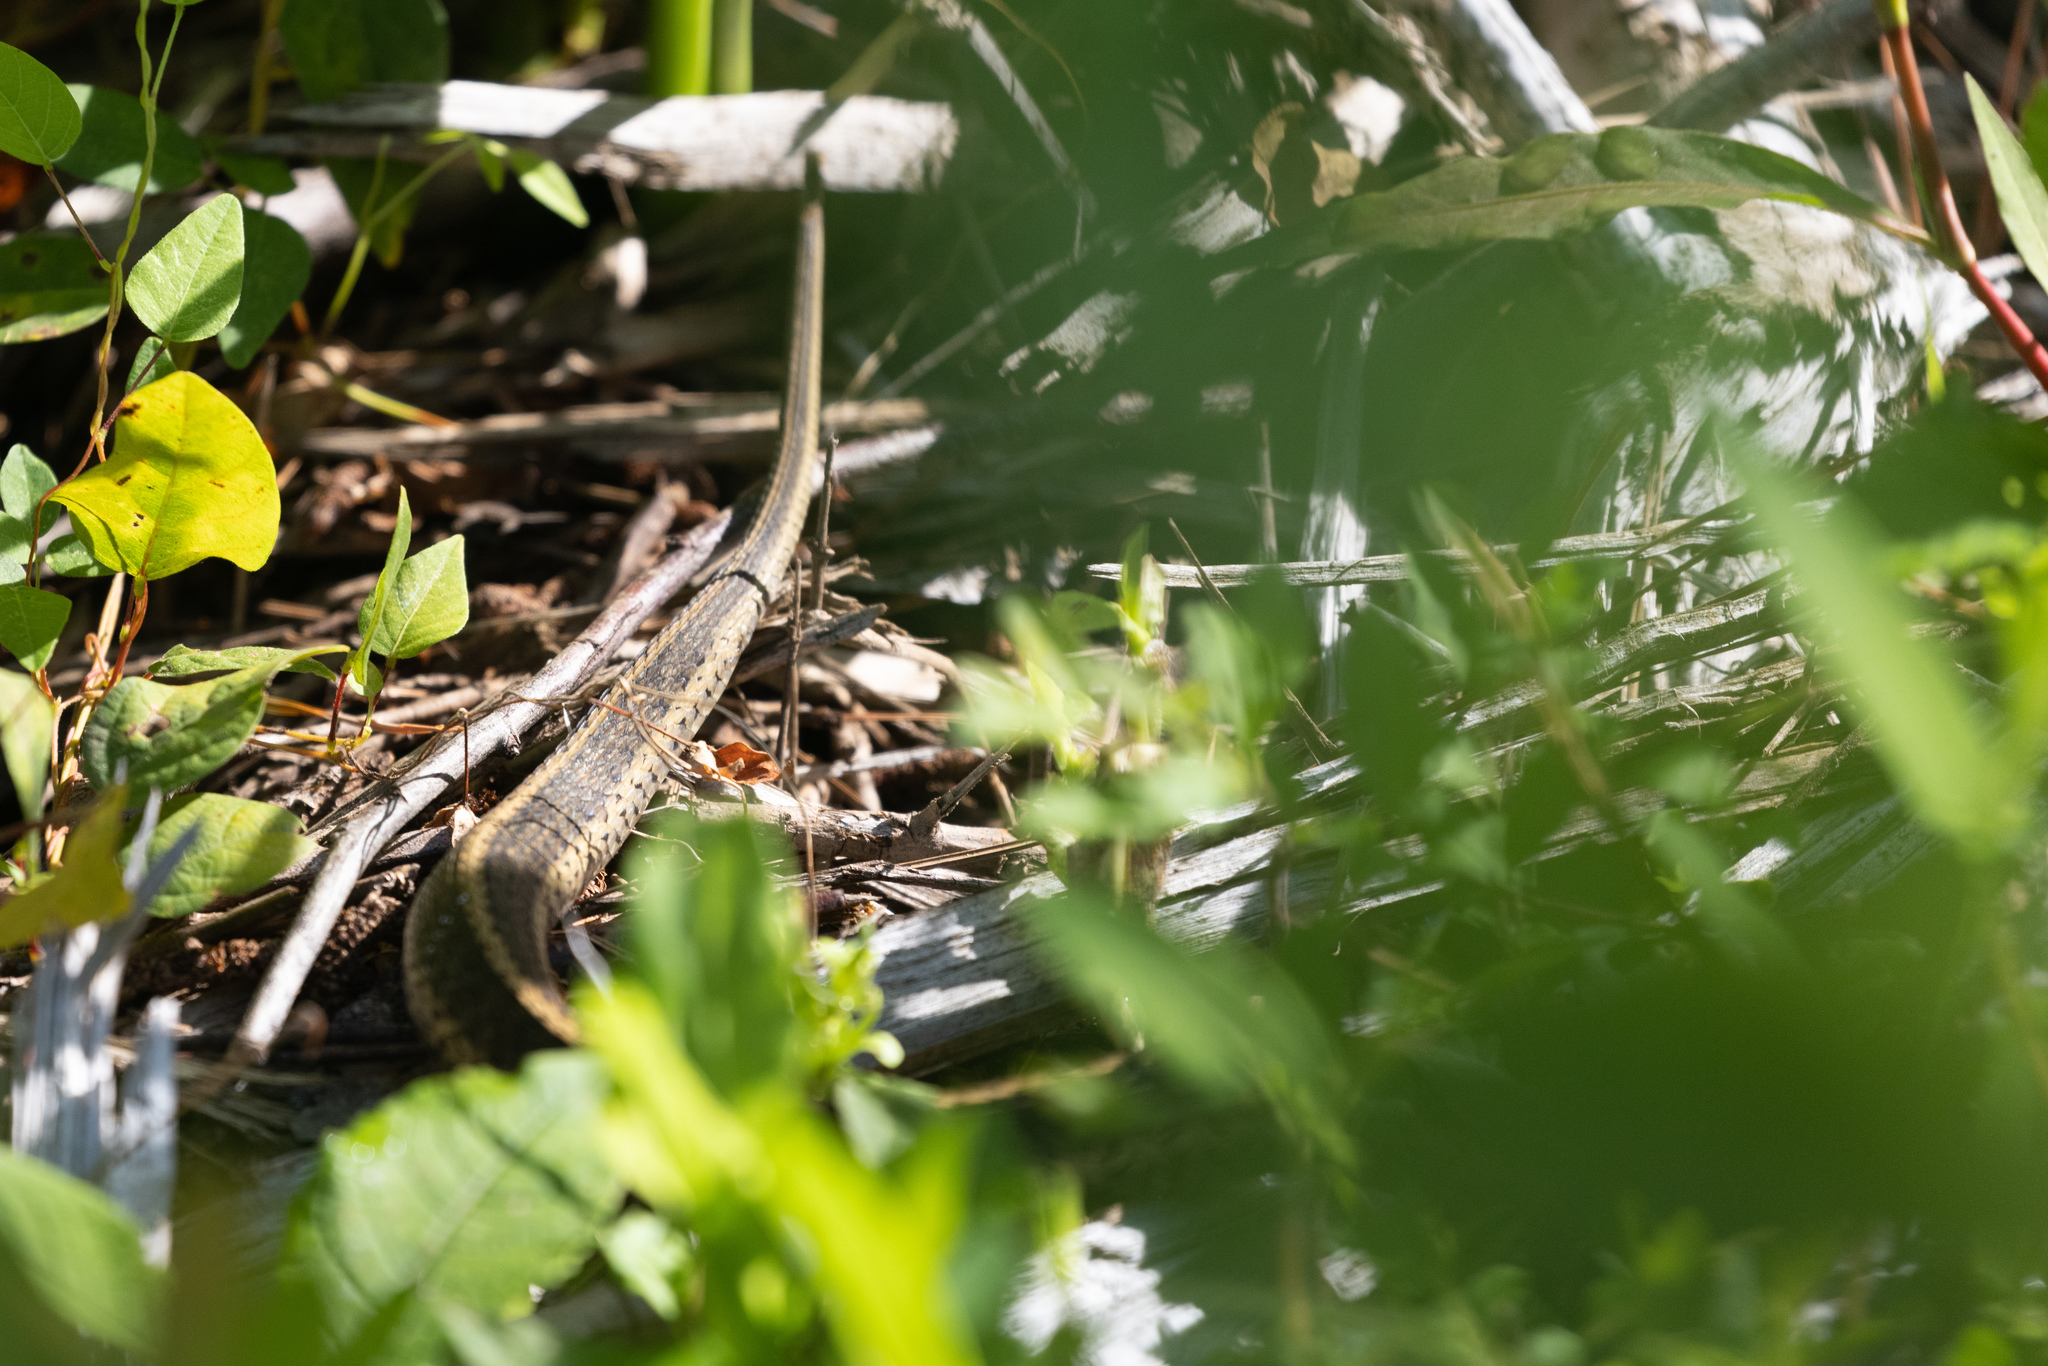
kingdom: Animalia
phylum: Chordata
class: Squamata
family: Colubridae
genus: Thamnophis
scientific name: Thamnophis sirtalis
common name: Common garter snake
